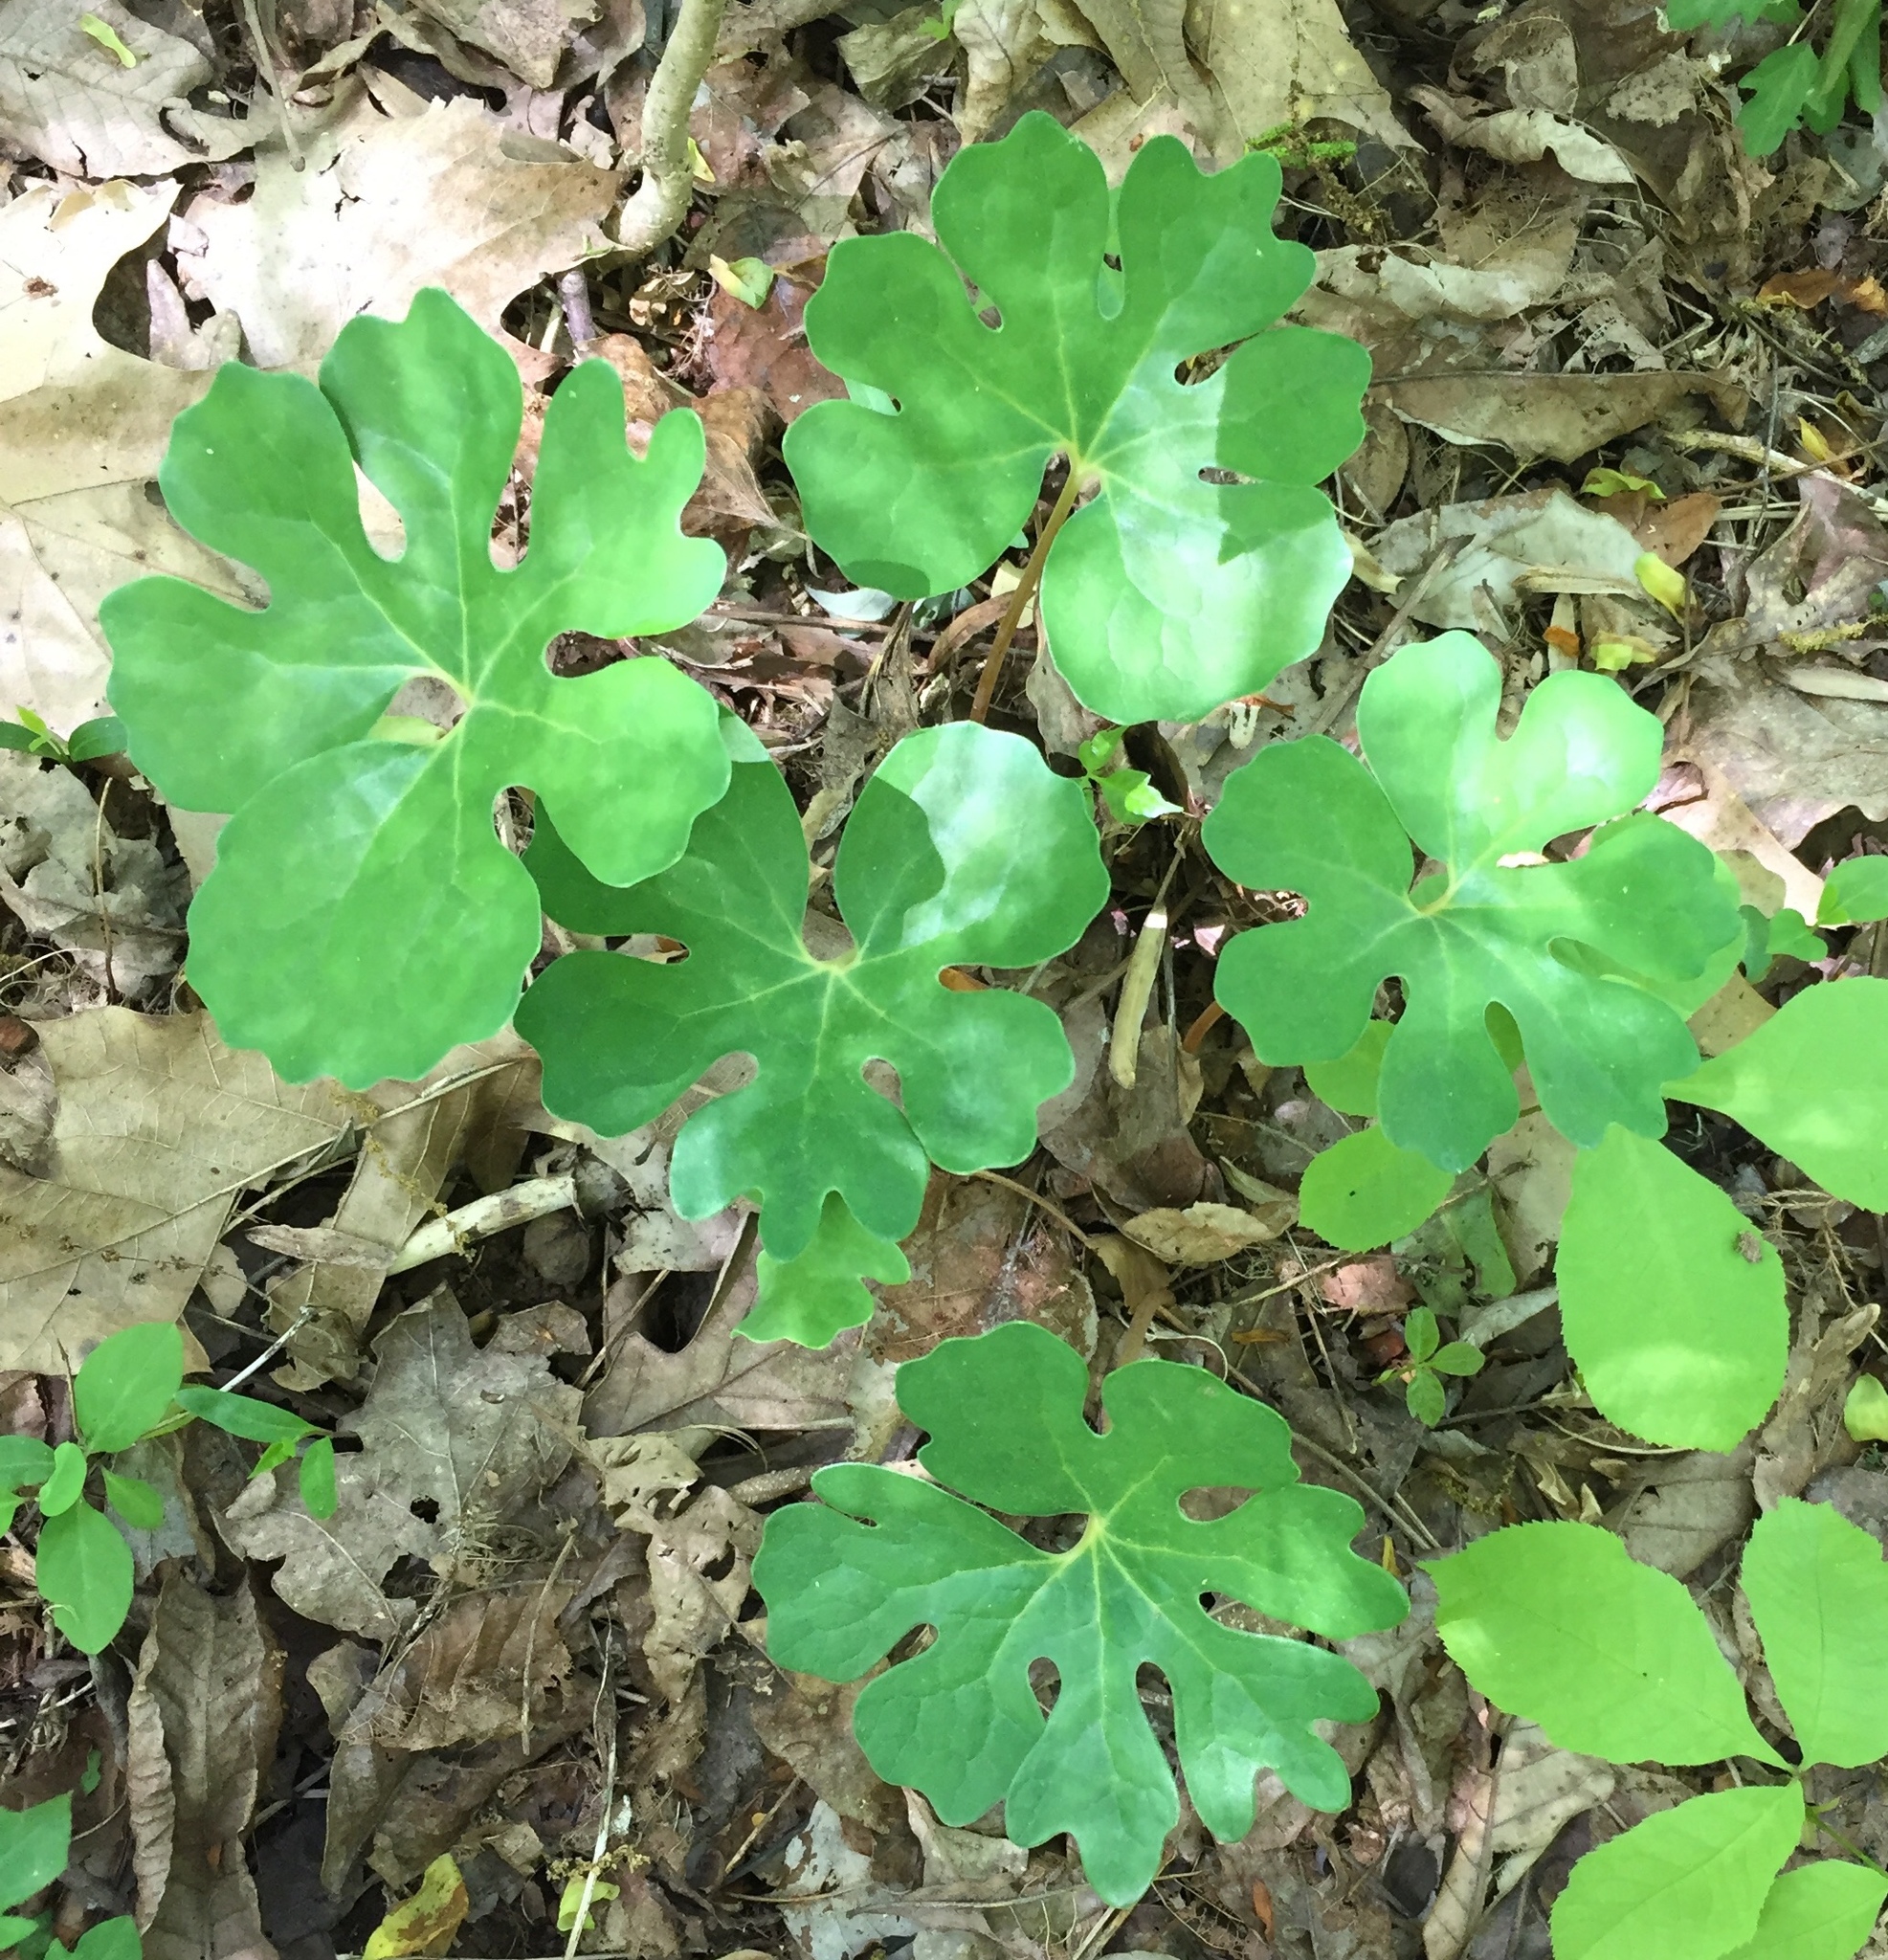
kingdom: Plantae
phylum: Tracheophyta
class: Magnoliopsida
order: Ranunculales
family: Papaveraceae
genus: Sanguinaria
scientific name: Sanguinaria canadensis
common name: Bloodroot
